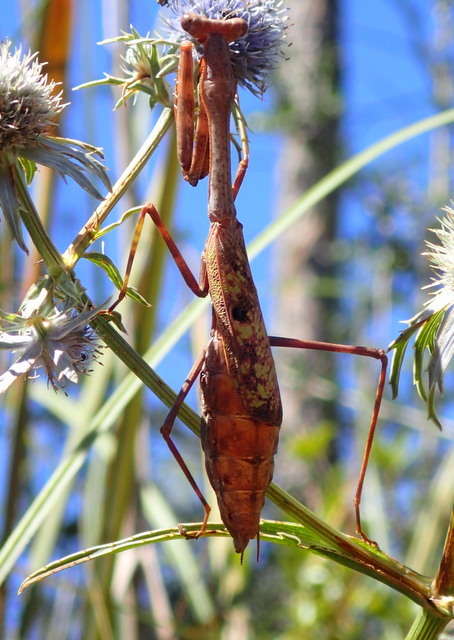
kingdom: Animalia
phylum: Arthropoda
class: Insecta
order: Mantodea
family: Mantidae
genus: Stagmomantis
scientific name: Stagmomantis carolina
